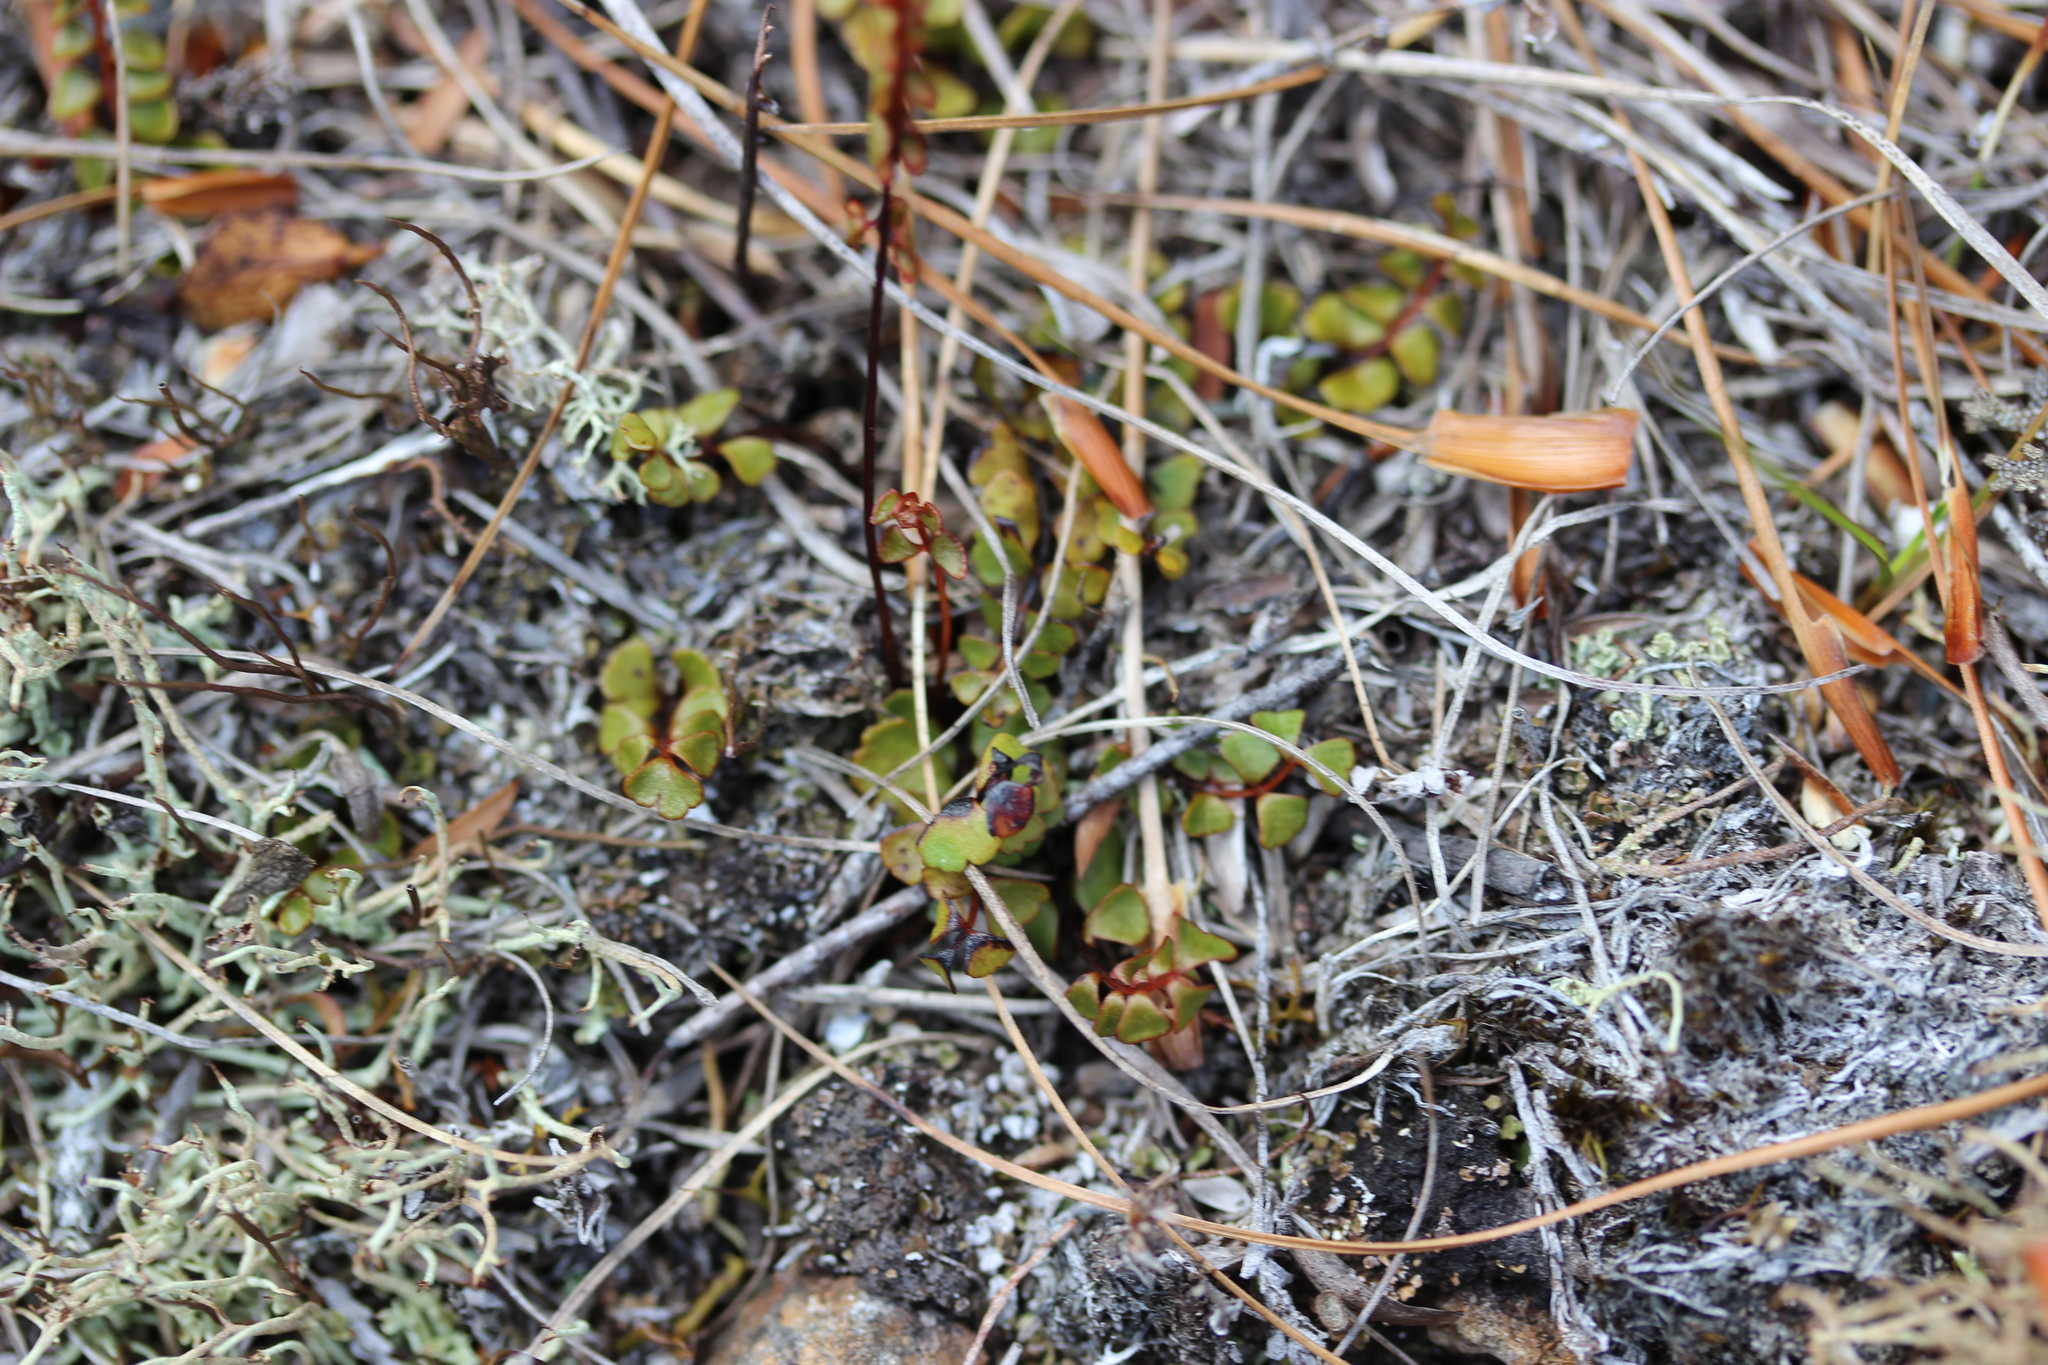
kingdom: Plantae
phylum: Tracheophyta
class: Polypodiopsida
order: Polypodiales
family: Lindsaeaceae
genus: Lindsaea
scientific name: Lindsaea linearis
